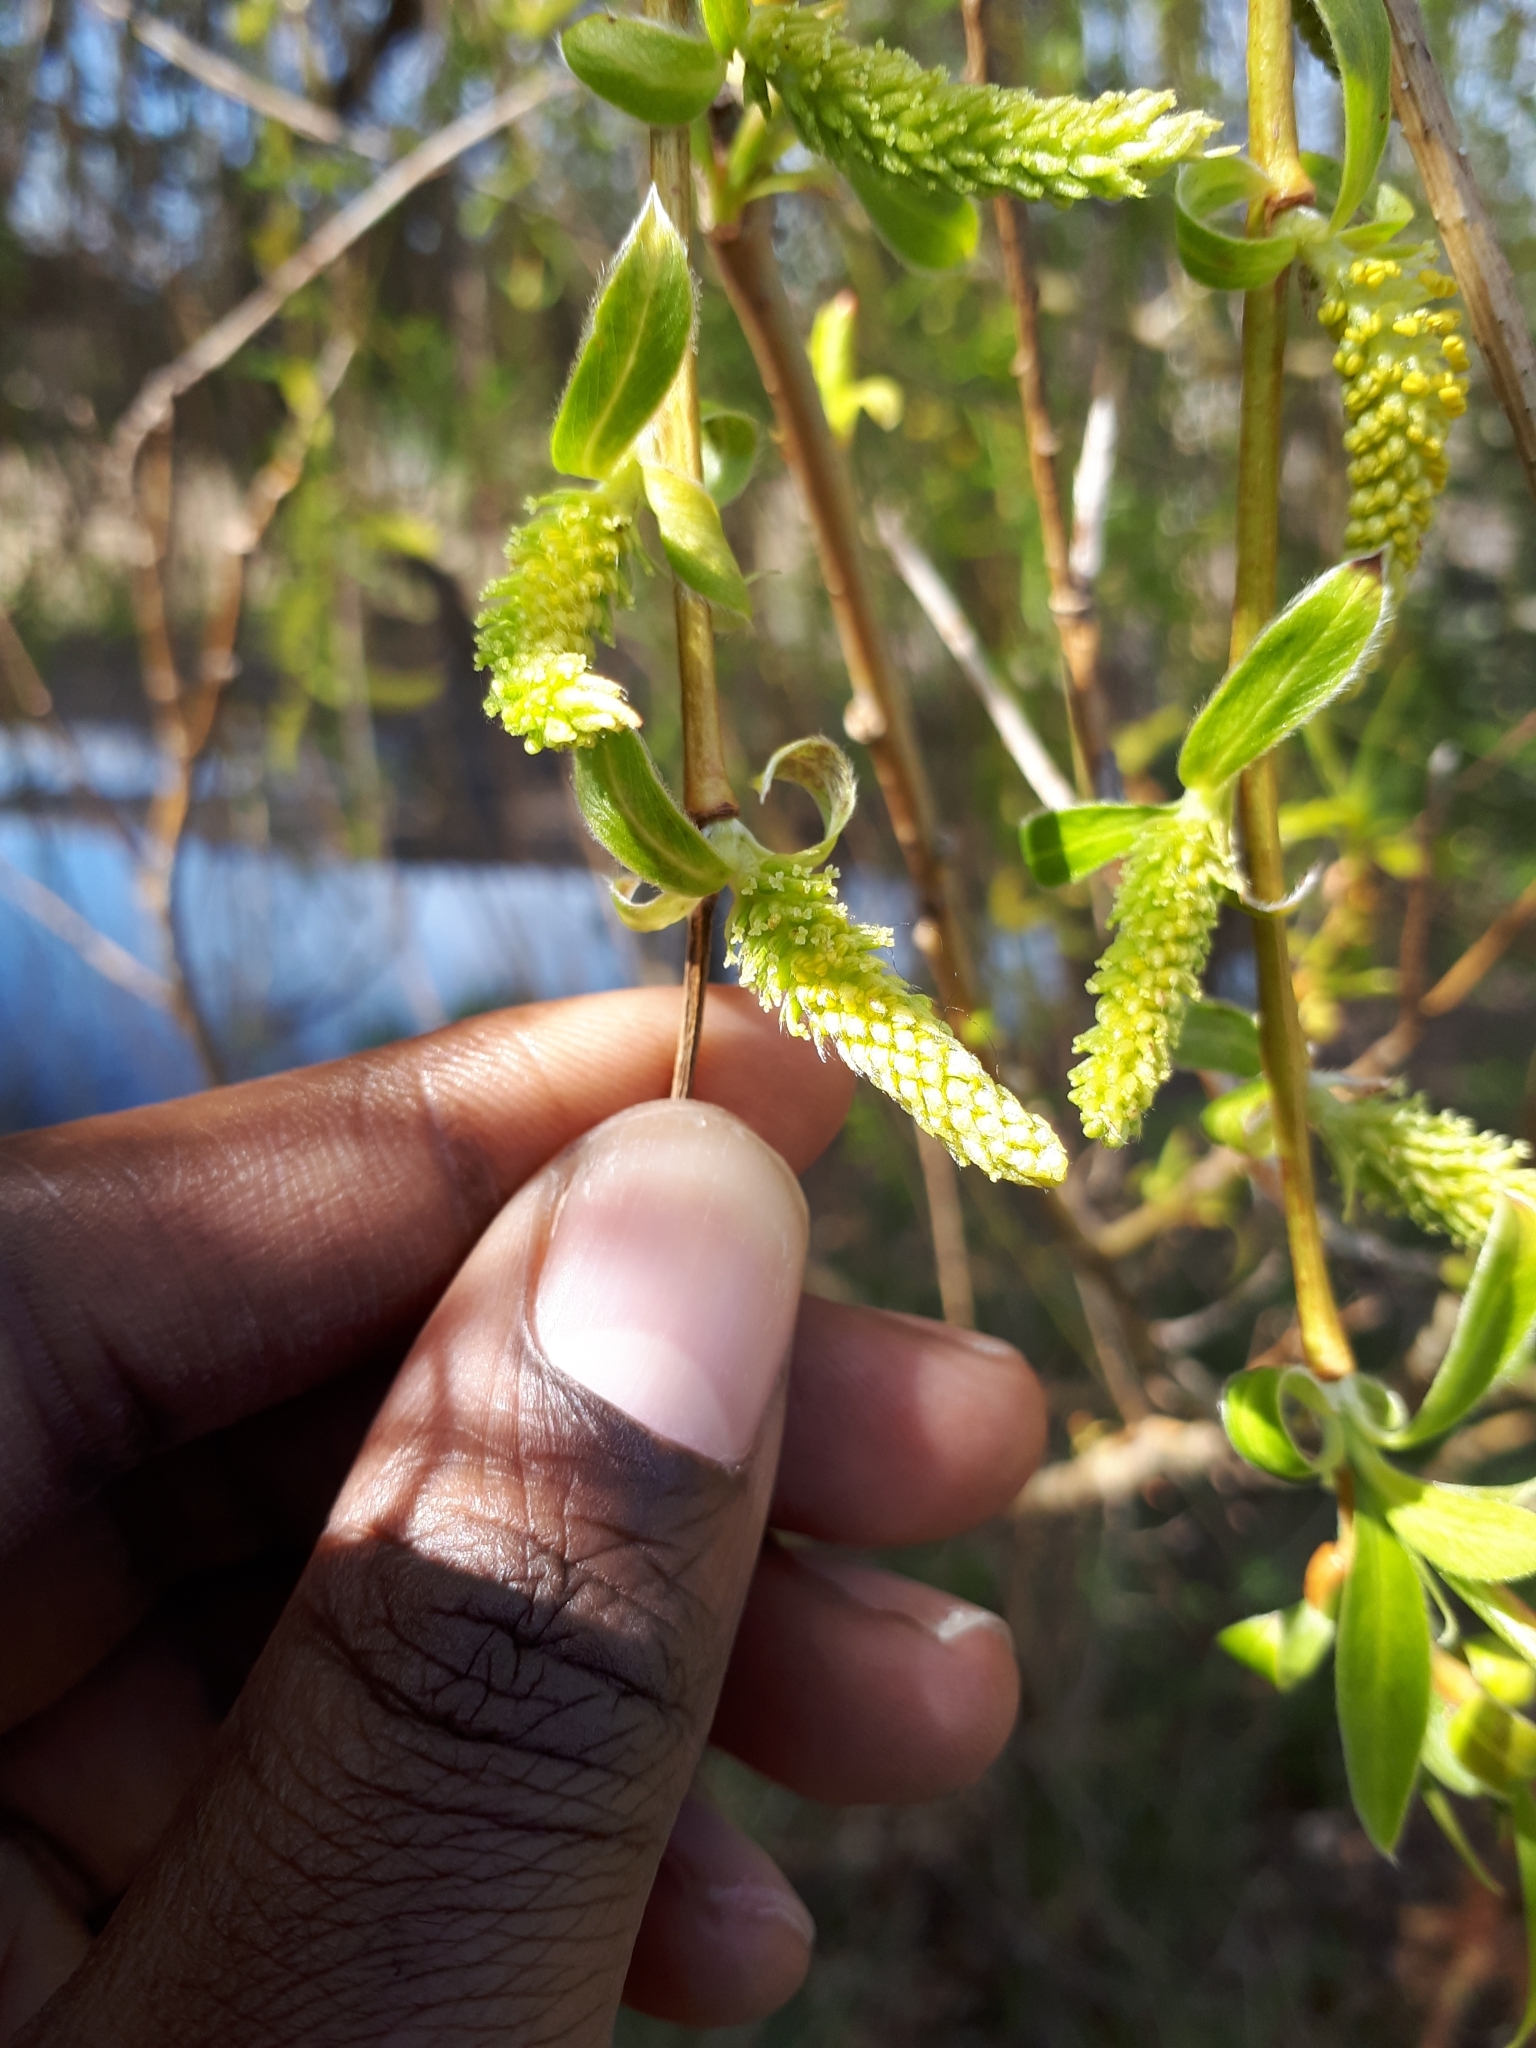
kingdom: Plantae
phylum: Tracheophyta
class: Magnoliopsida
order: Malpighiales
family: Salicaceae
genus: Salix
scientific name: Salix pendulina
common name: Wisconsin weeping willow
